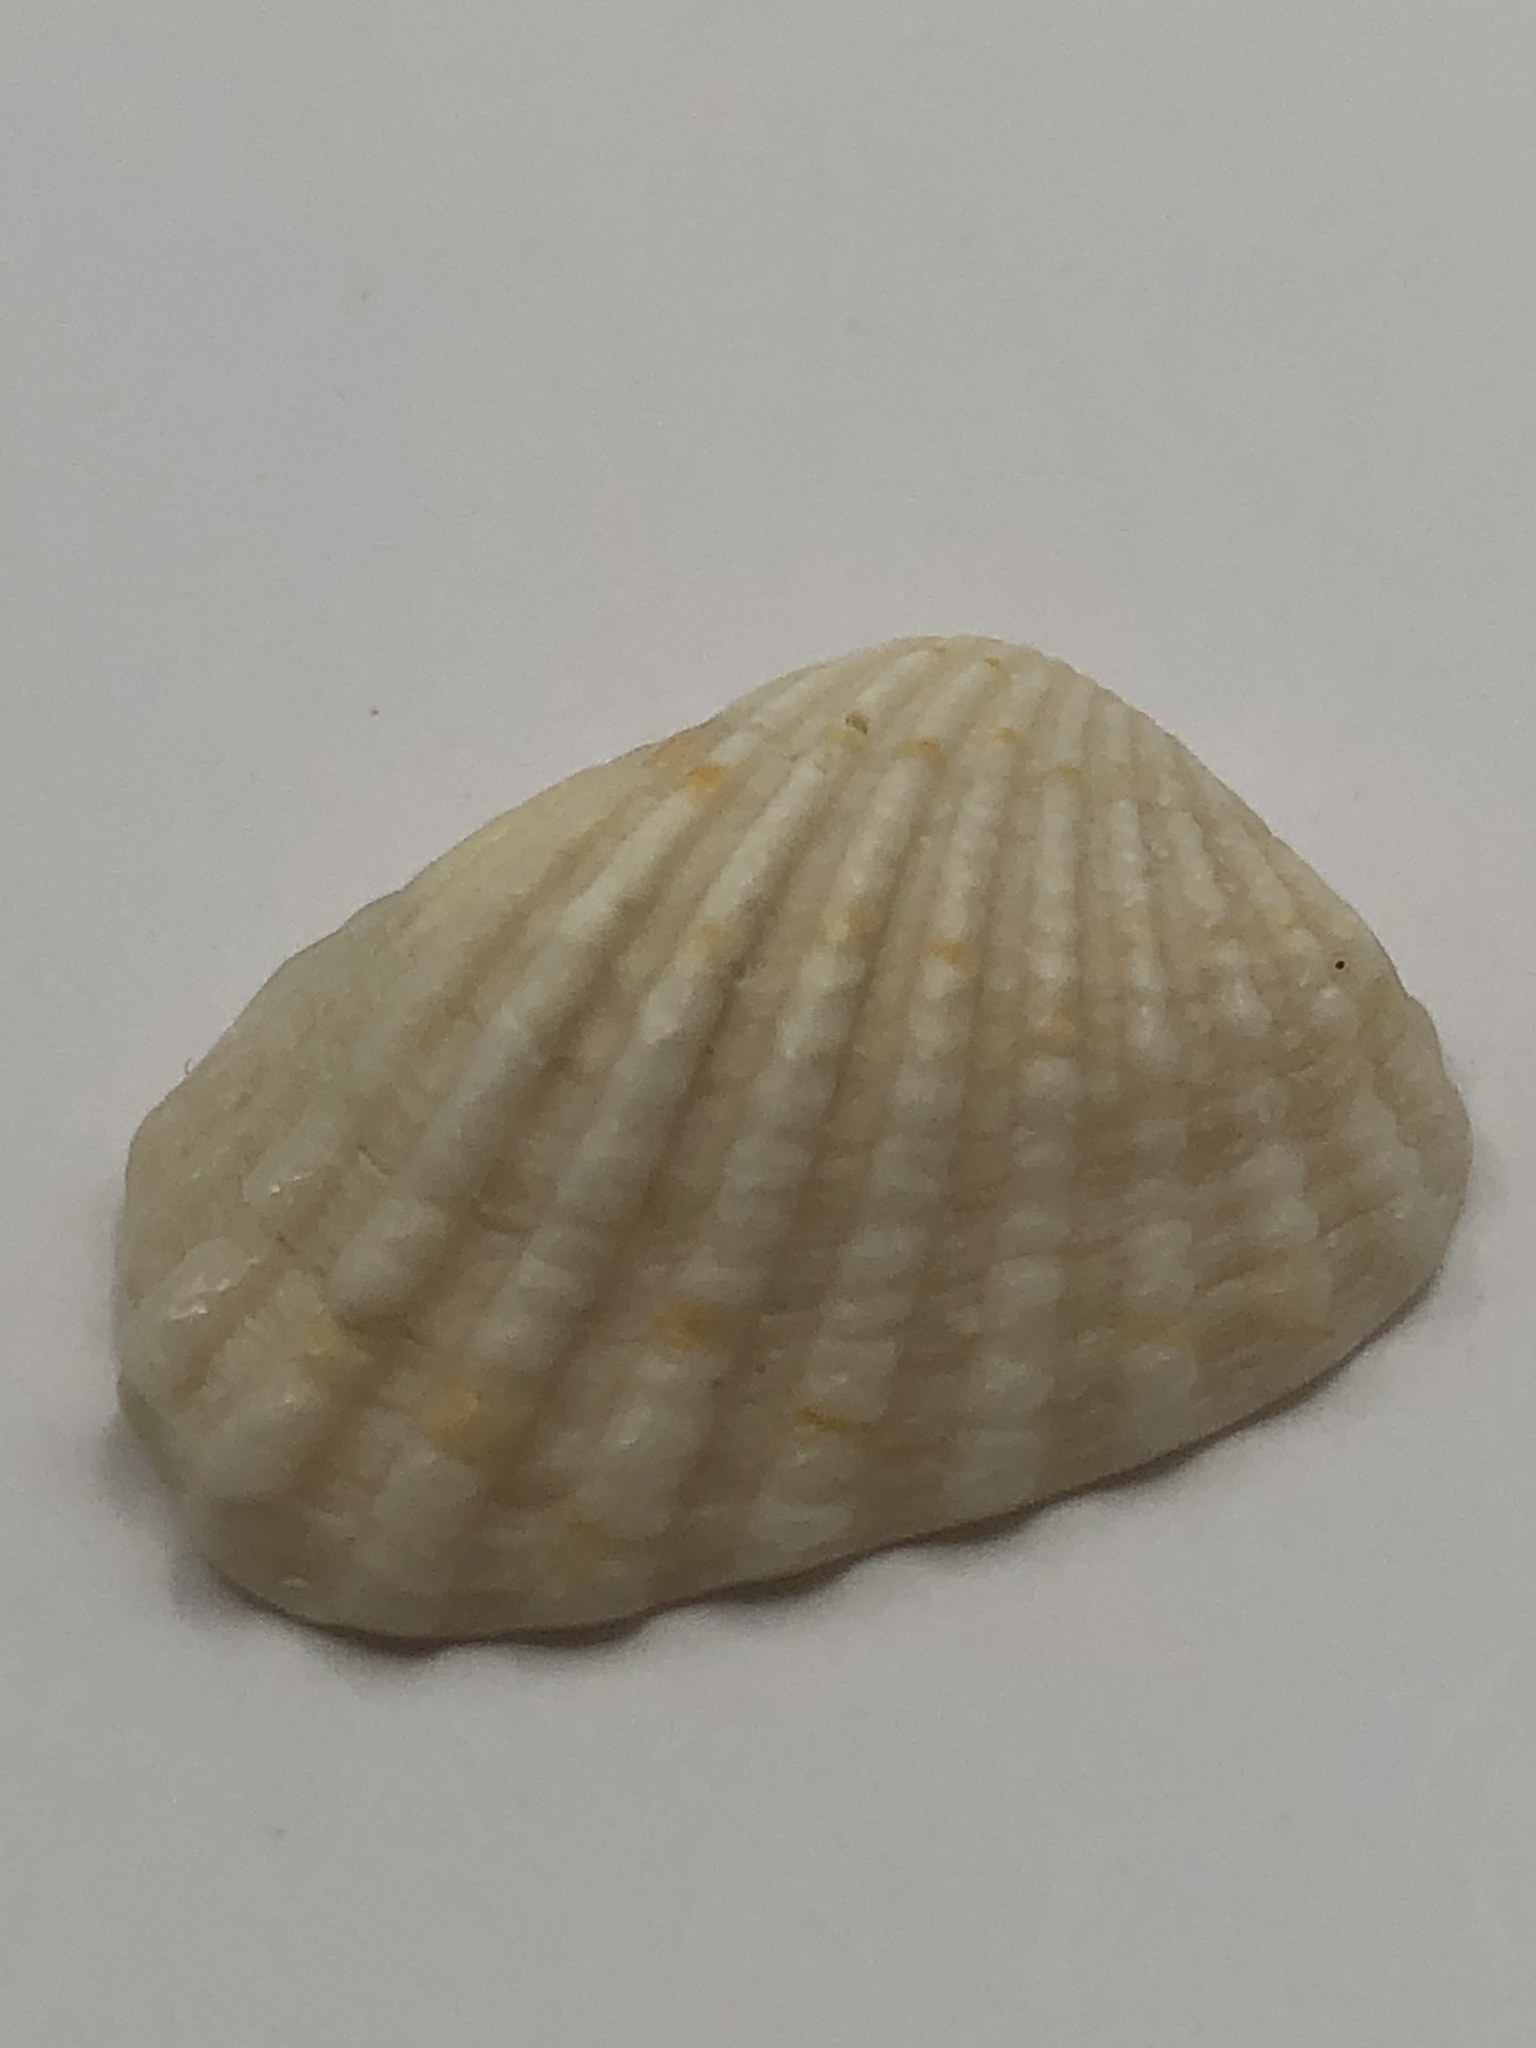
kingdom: Animalia
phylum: Mollusca
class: Bivalvia
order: Carditida
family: Carditidae
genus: Cardites
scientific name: Cardites floridanus
